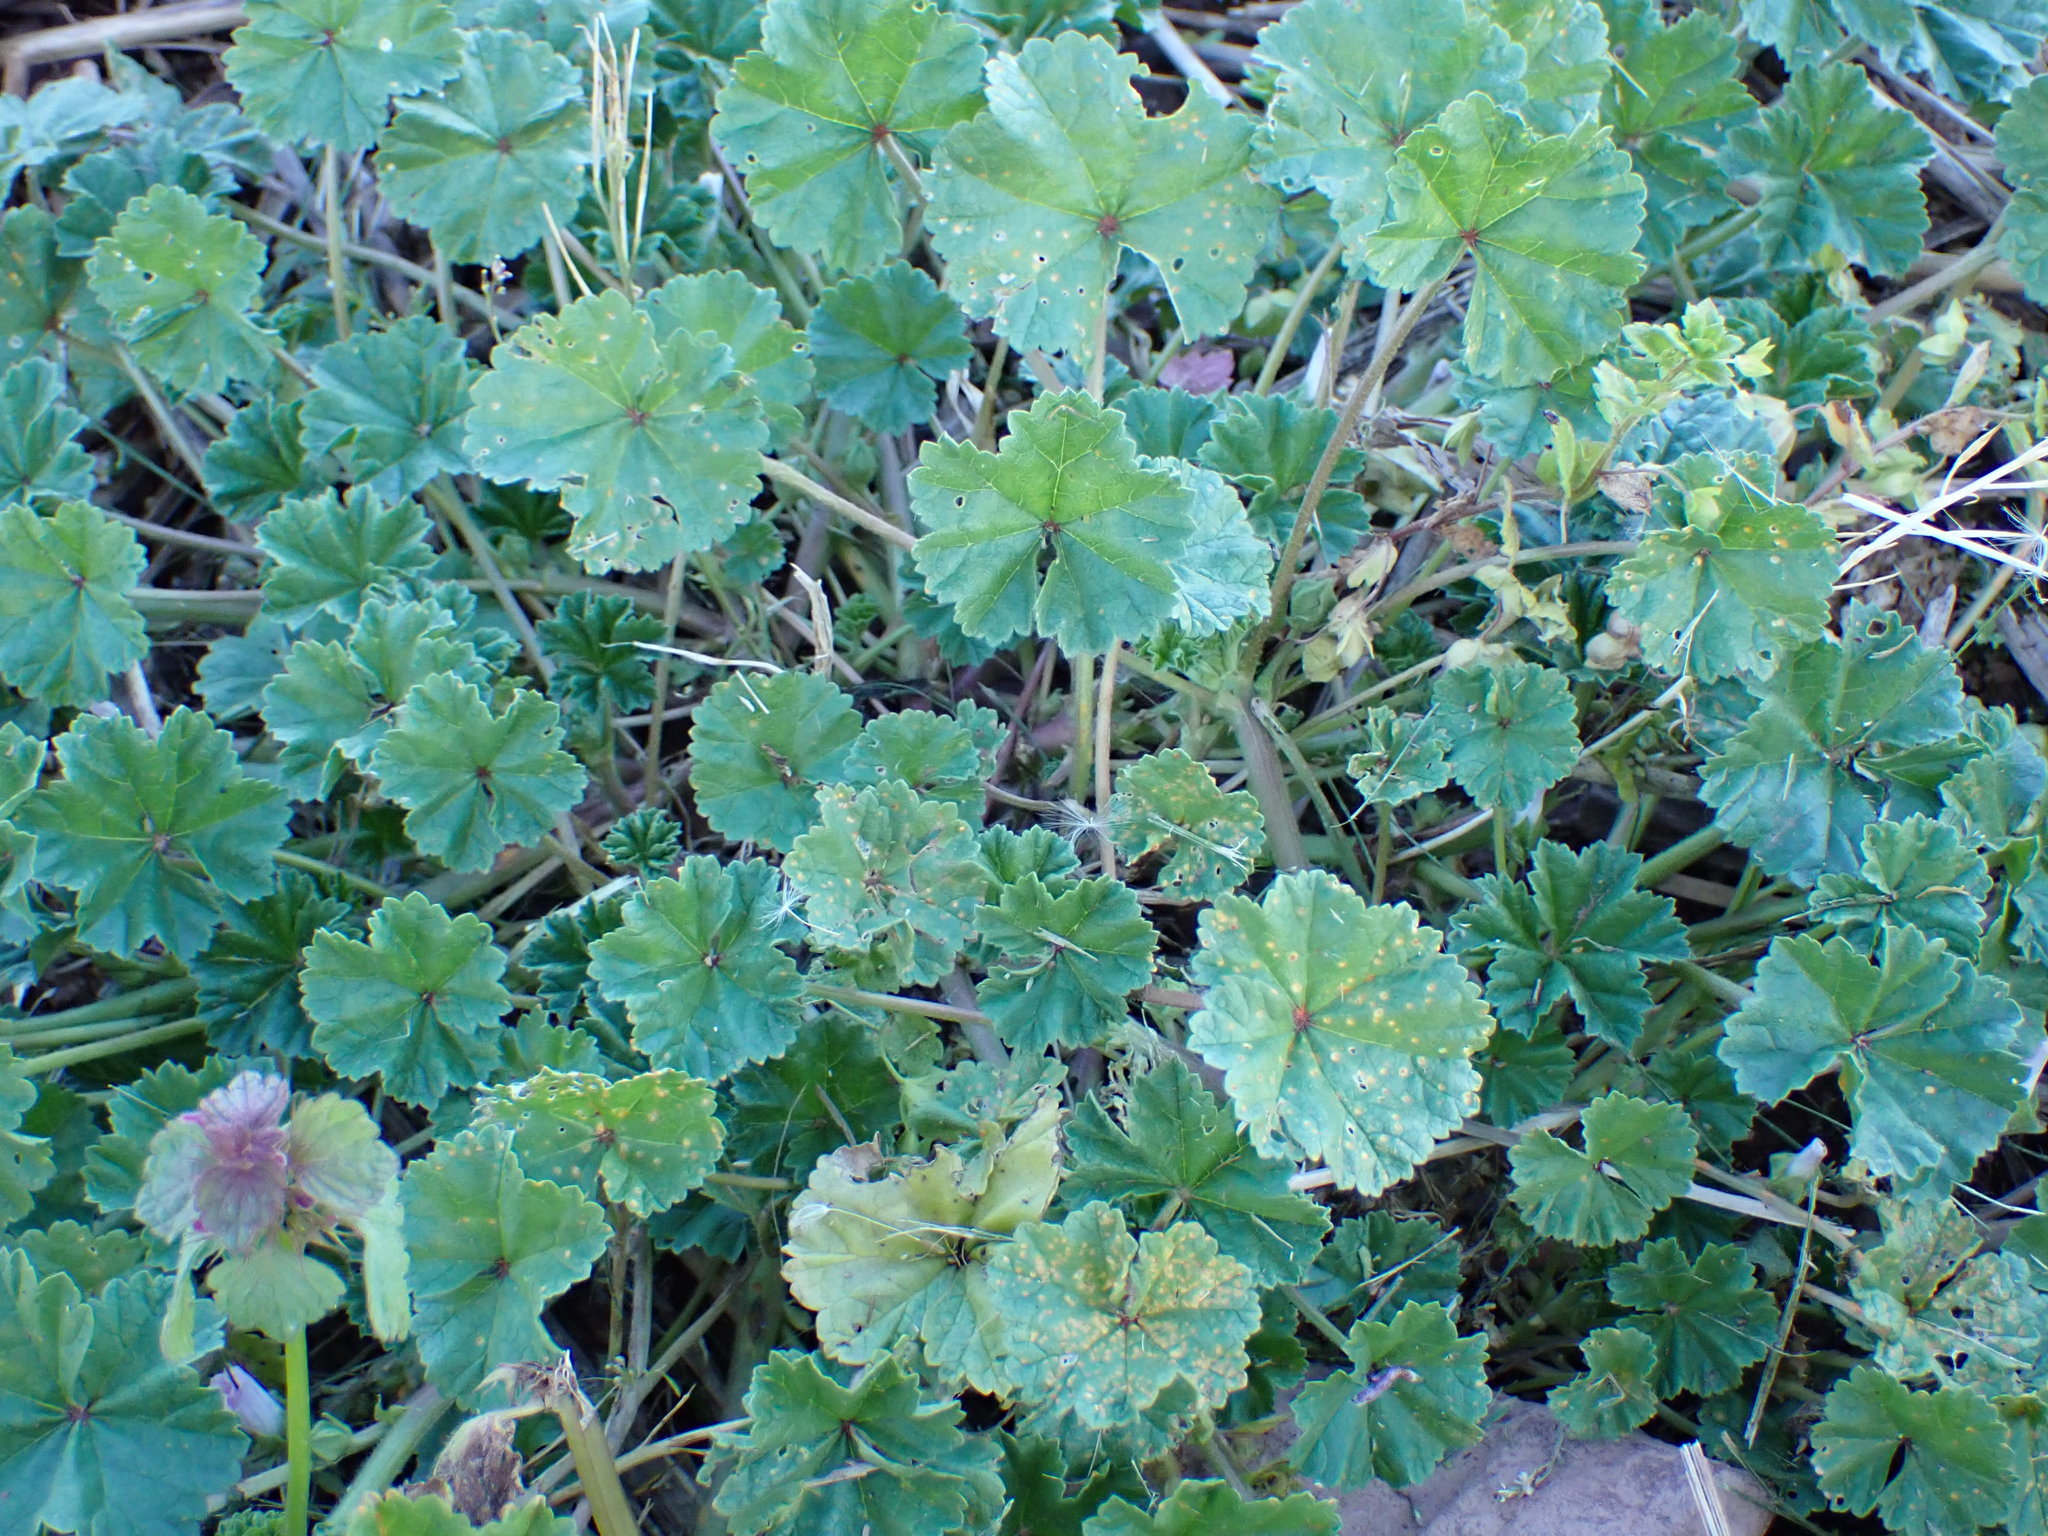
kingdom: Plantae
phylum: Tracheophyta
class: Magnoliopsida
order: Malvales
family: Malvaceae
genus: Malva
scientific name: Malva neglecta
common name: Common mallow
